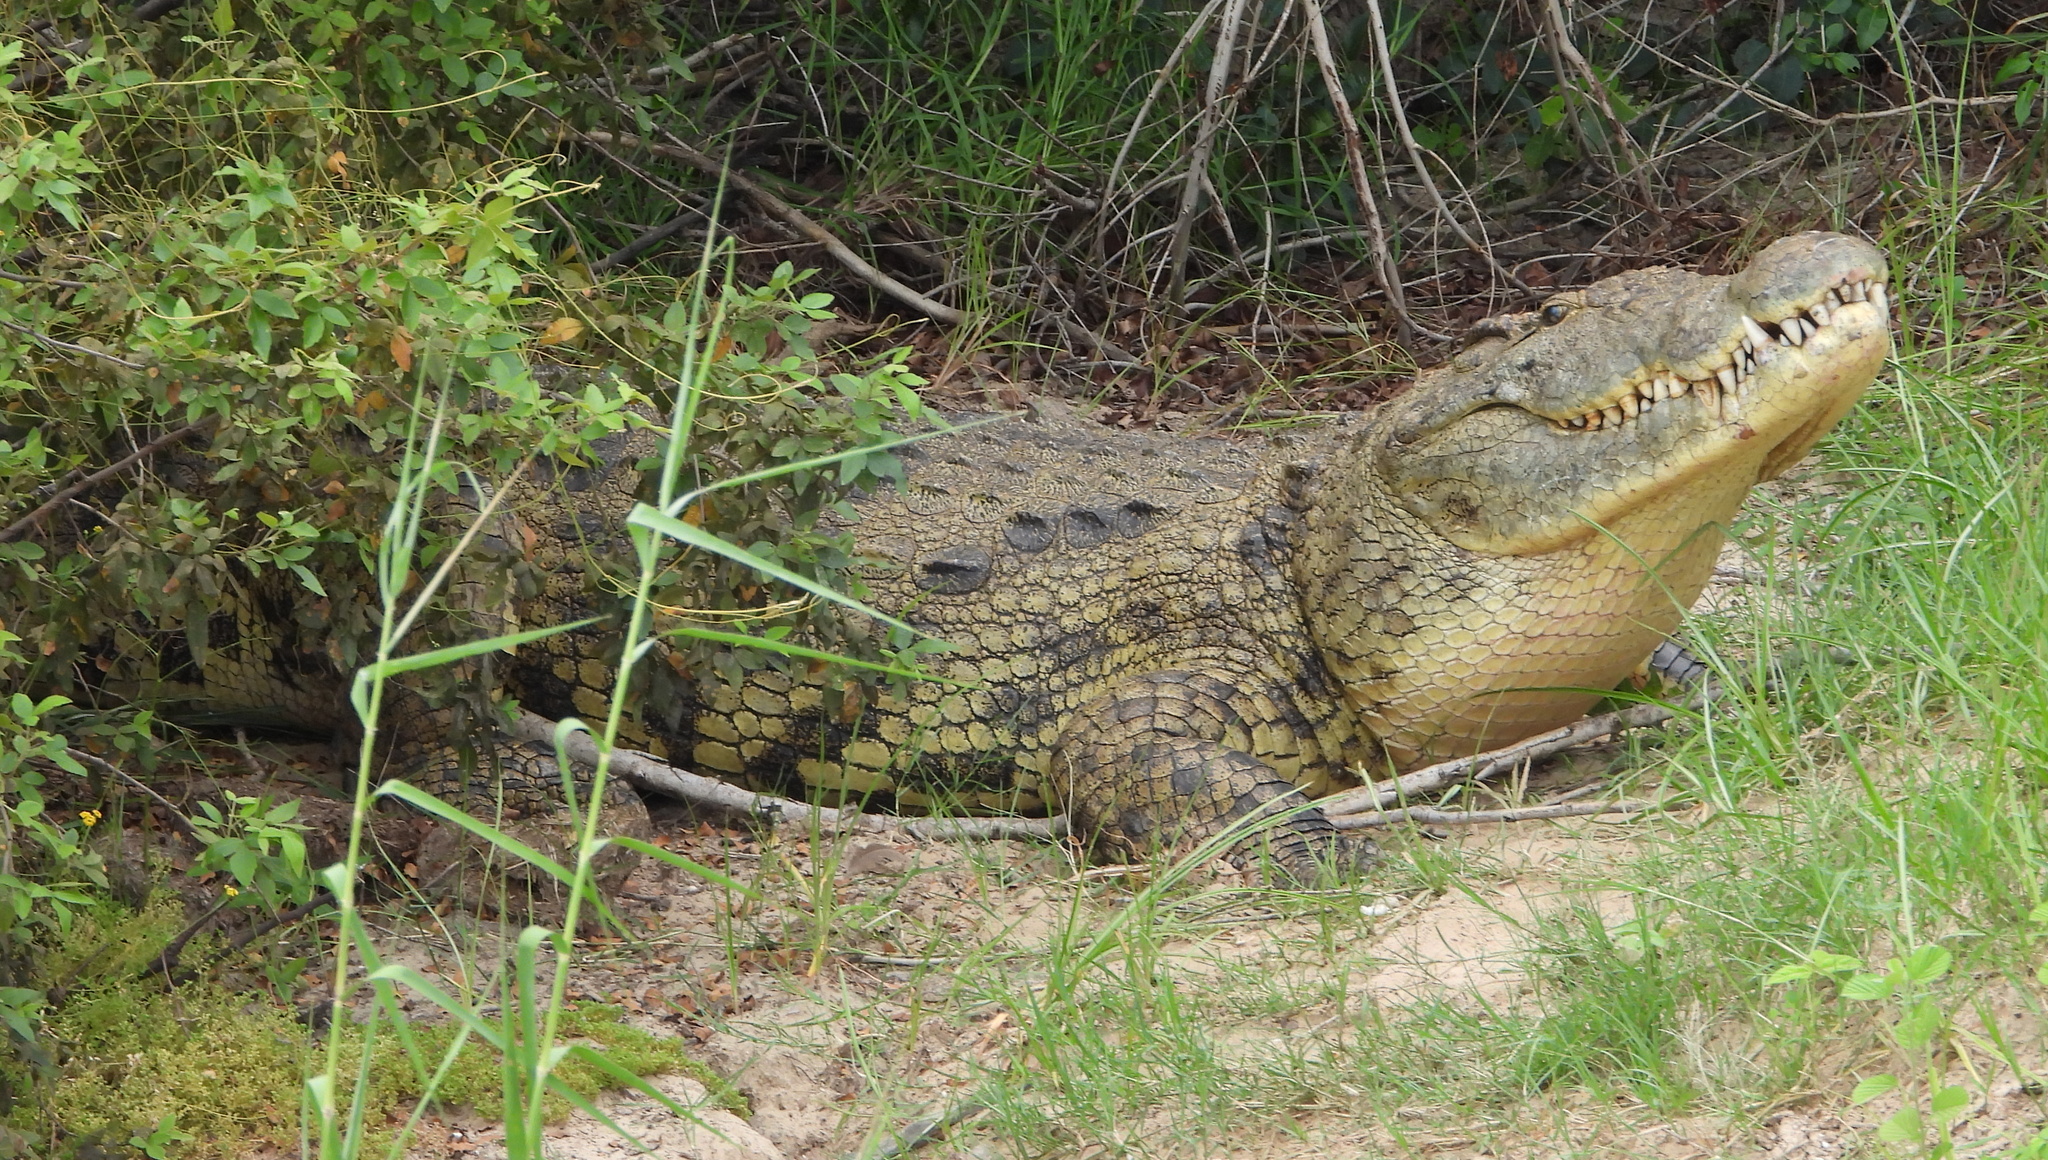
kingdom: Animalia
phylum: Chordata
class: Crocodylia
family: Crocodylidae
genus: Crocodylus
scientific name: Crocodylus niloticus
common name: Nile crocodile
